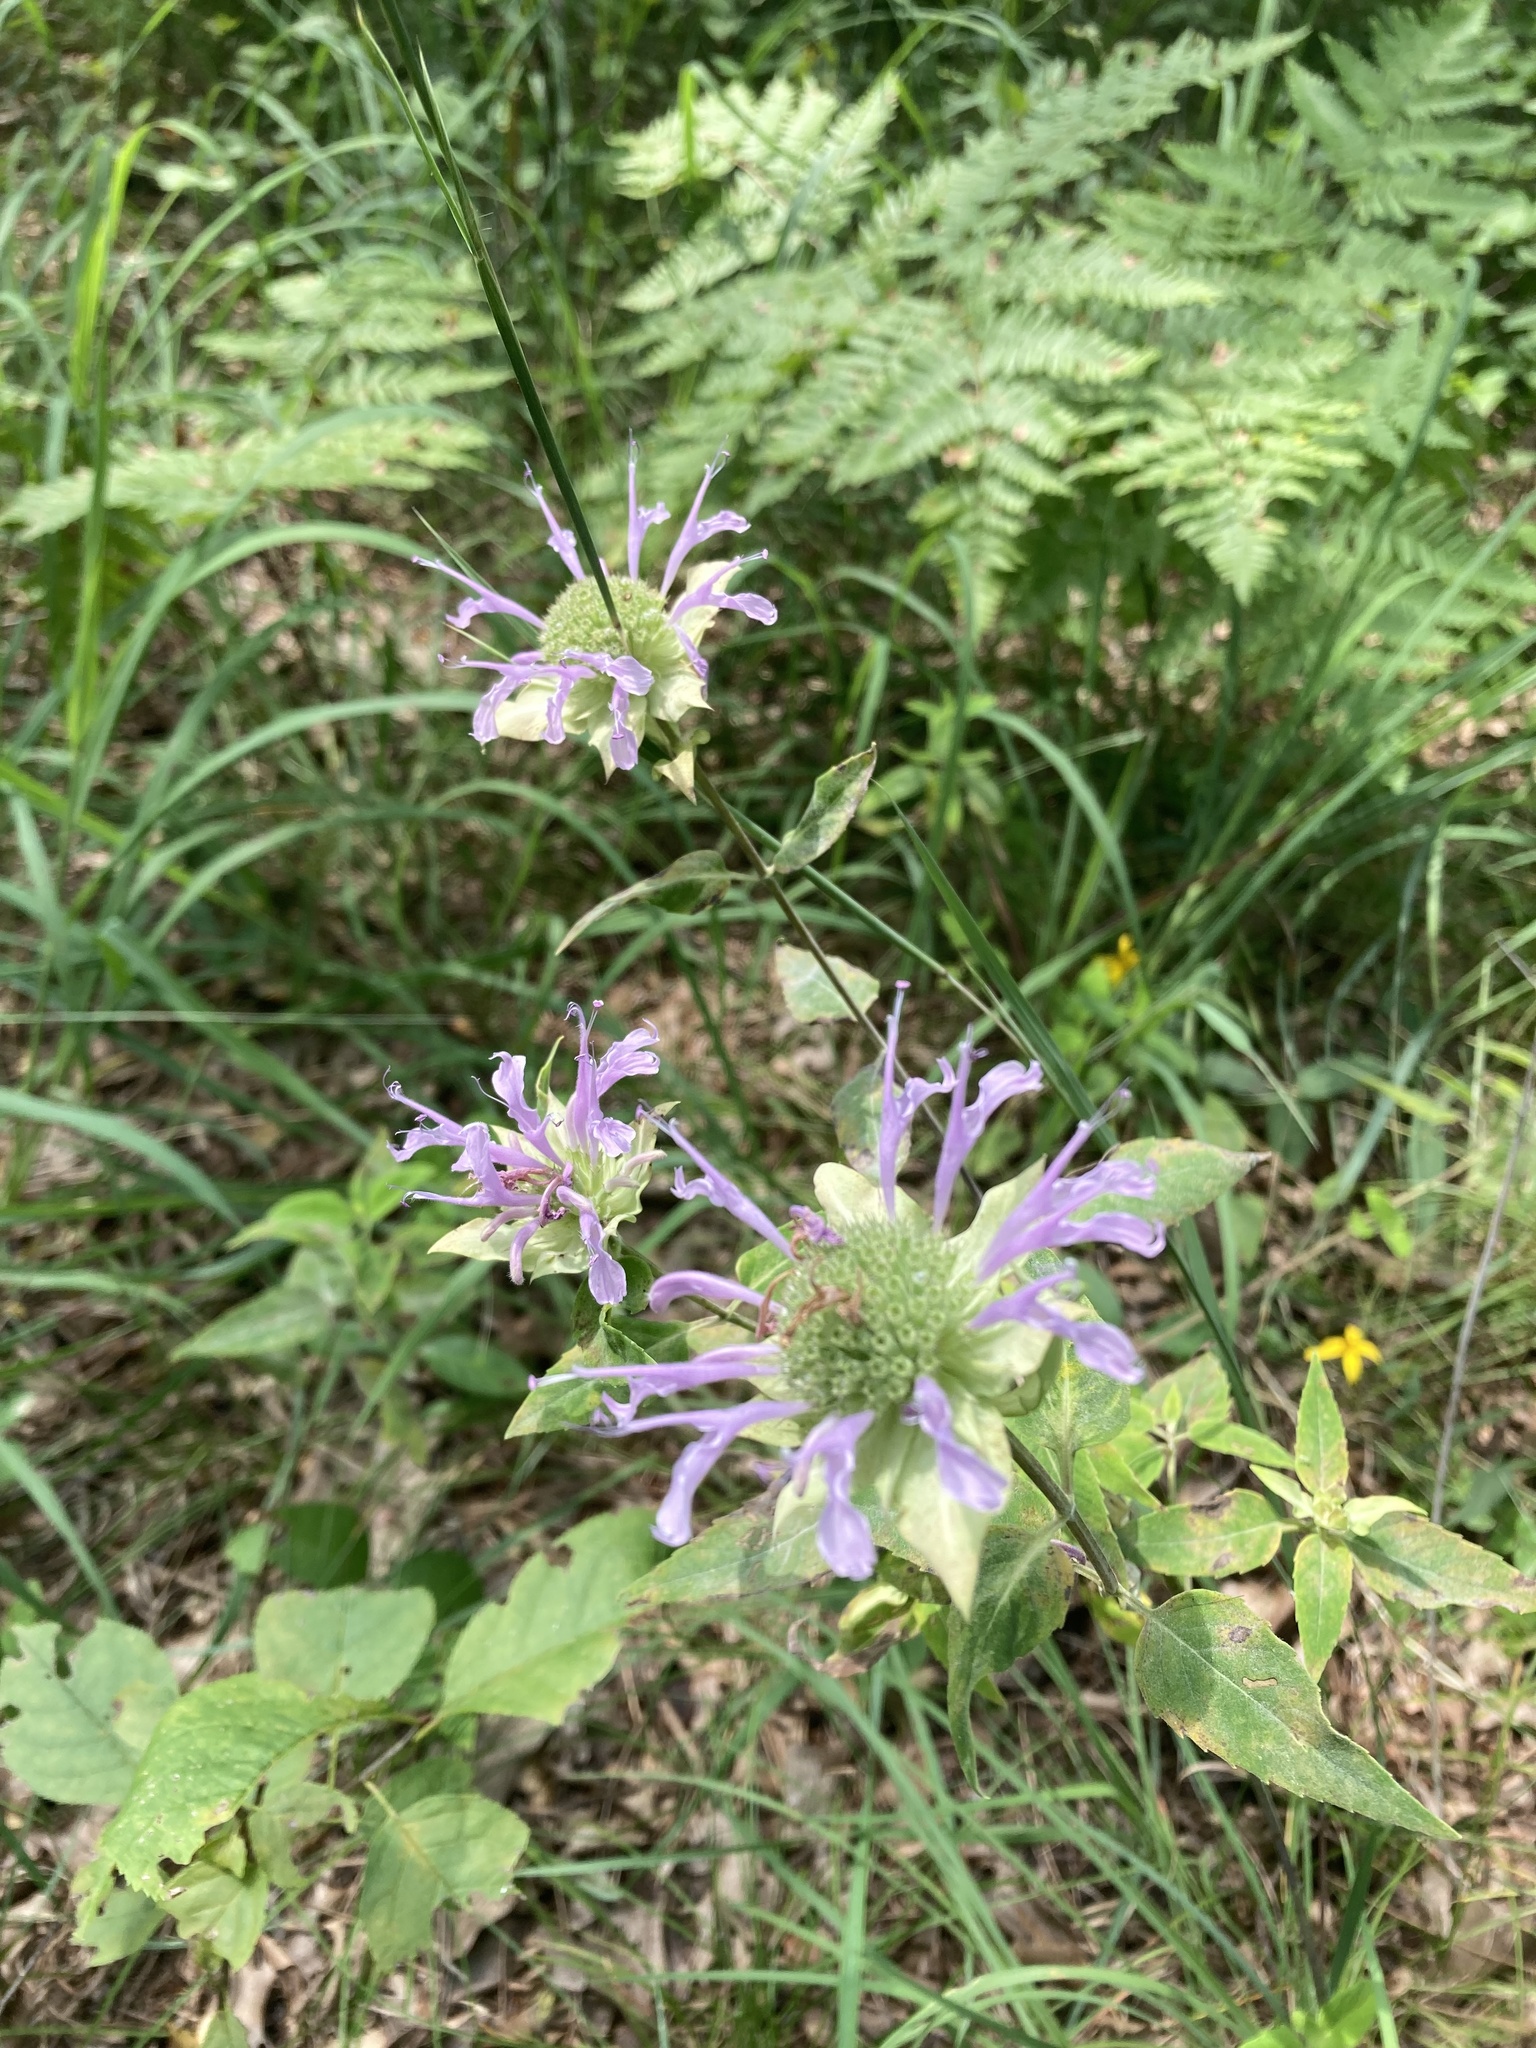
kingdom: Plantae
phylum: Tracheophyta
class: Magnoliopsida
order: Lamiales
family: Lamiaceae
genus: Monarda
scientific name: Monarda fistulosa
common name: Purple beebalm
